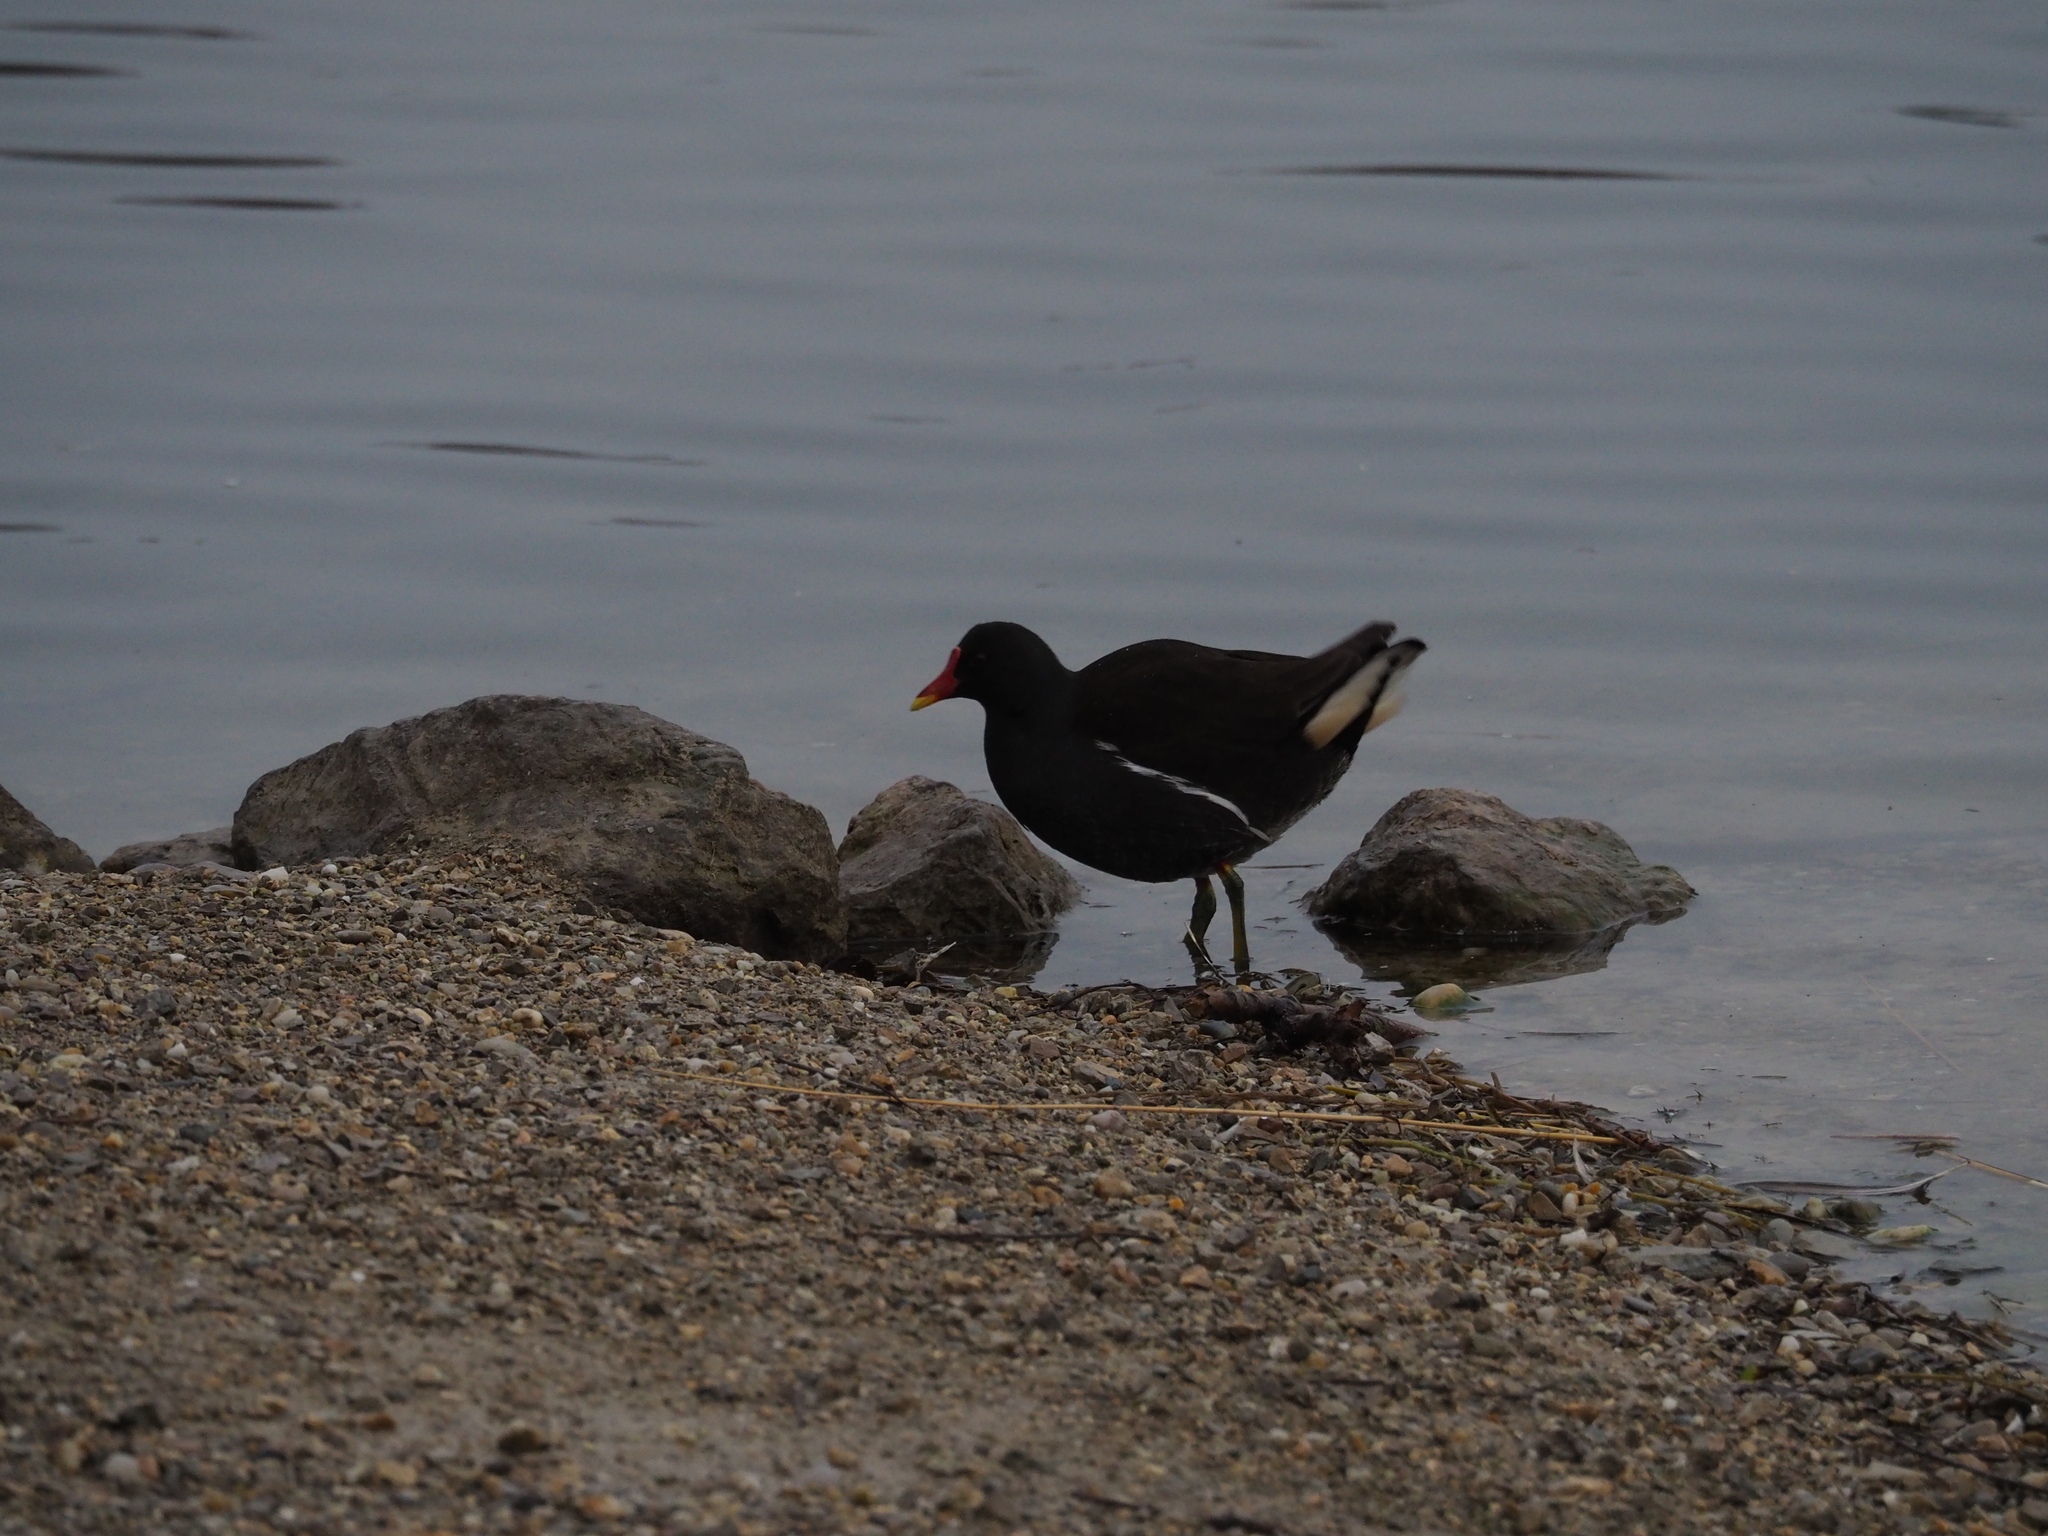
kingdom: Animalia
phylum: Chordata
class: Aves
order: Gruiformes
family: Rallidae
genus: Gallinula
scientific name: Gallinula chloropus
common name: Common moorhen
